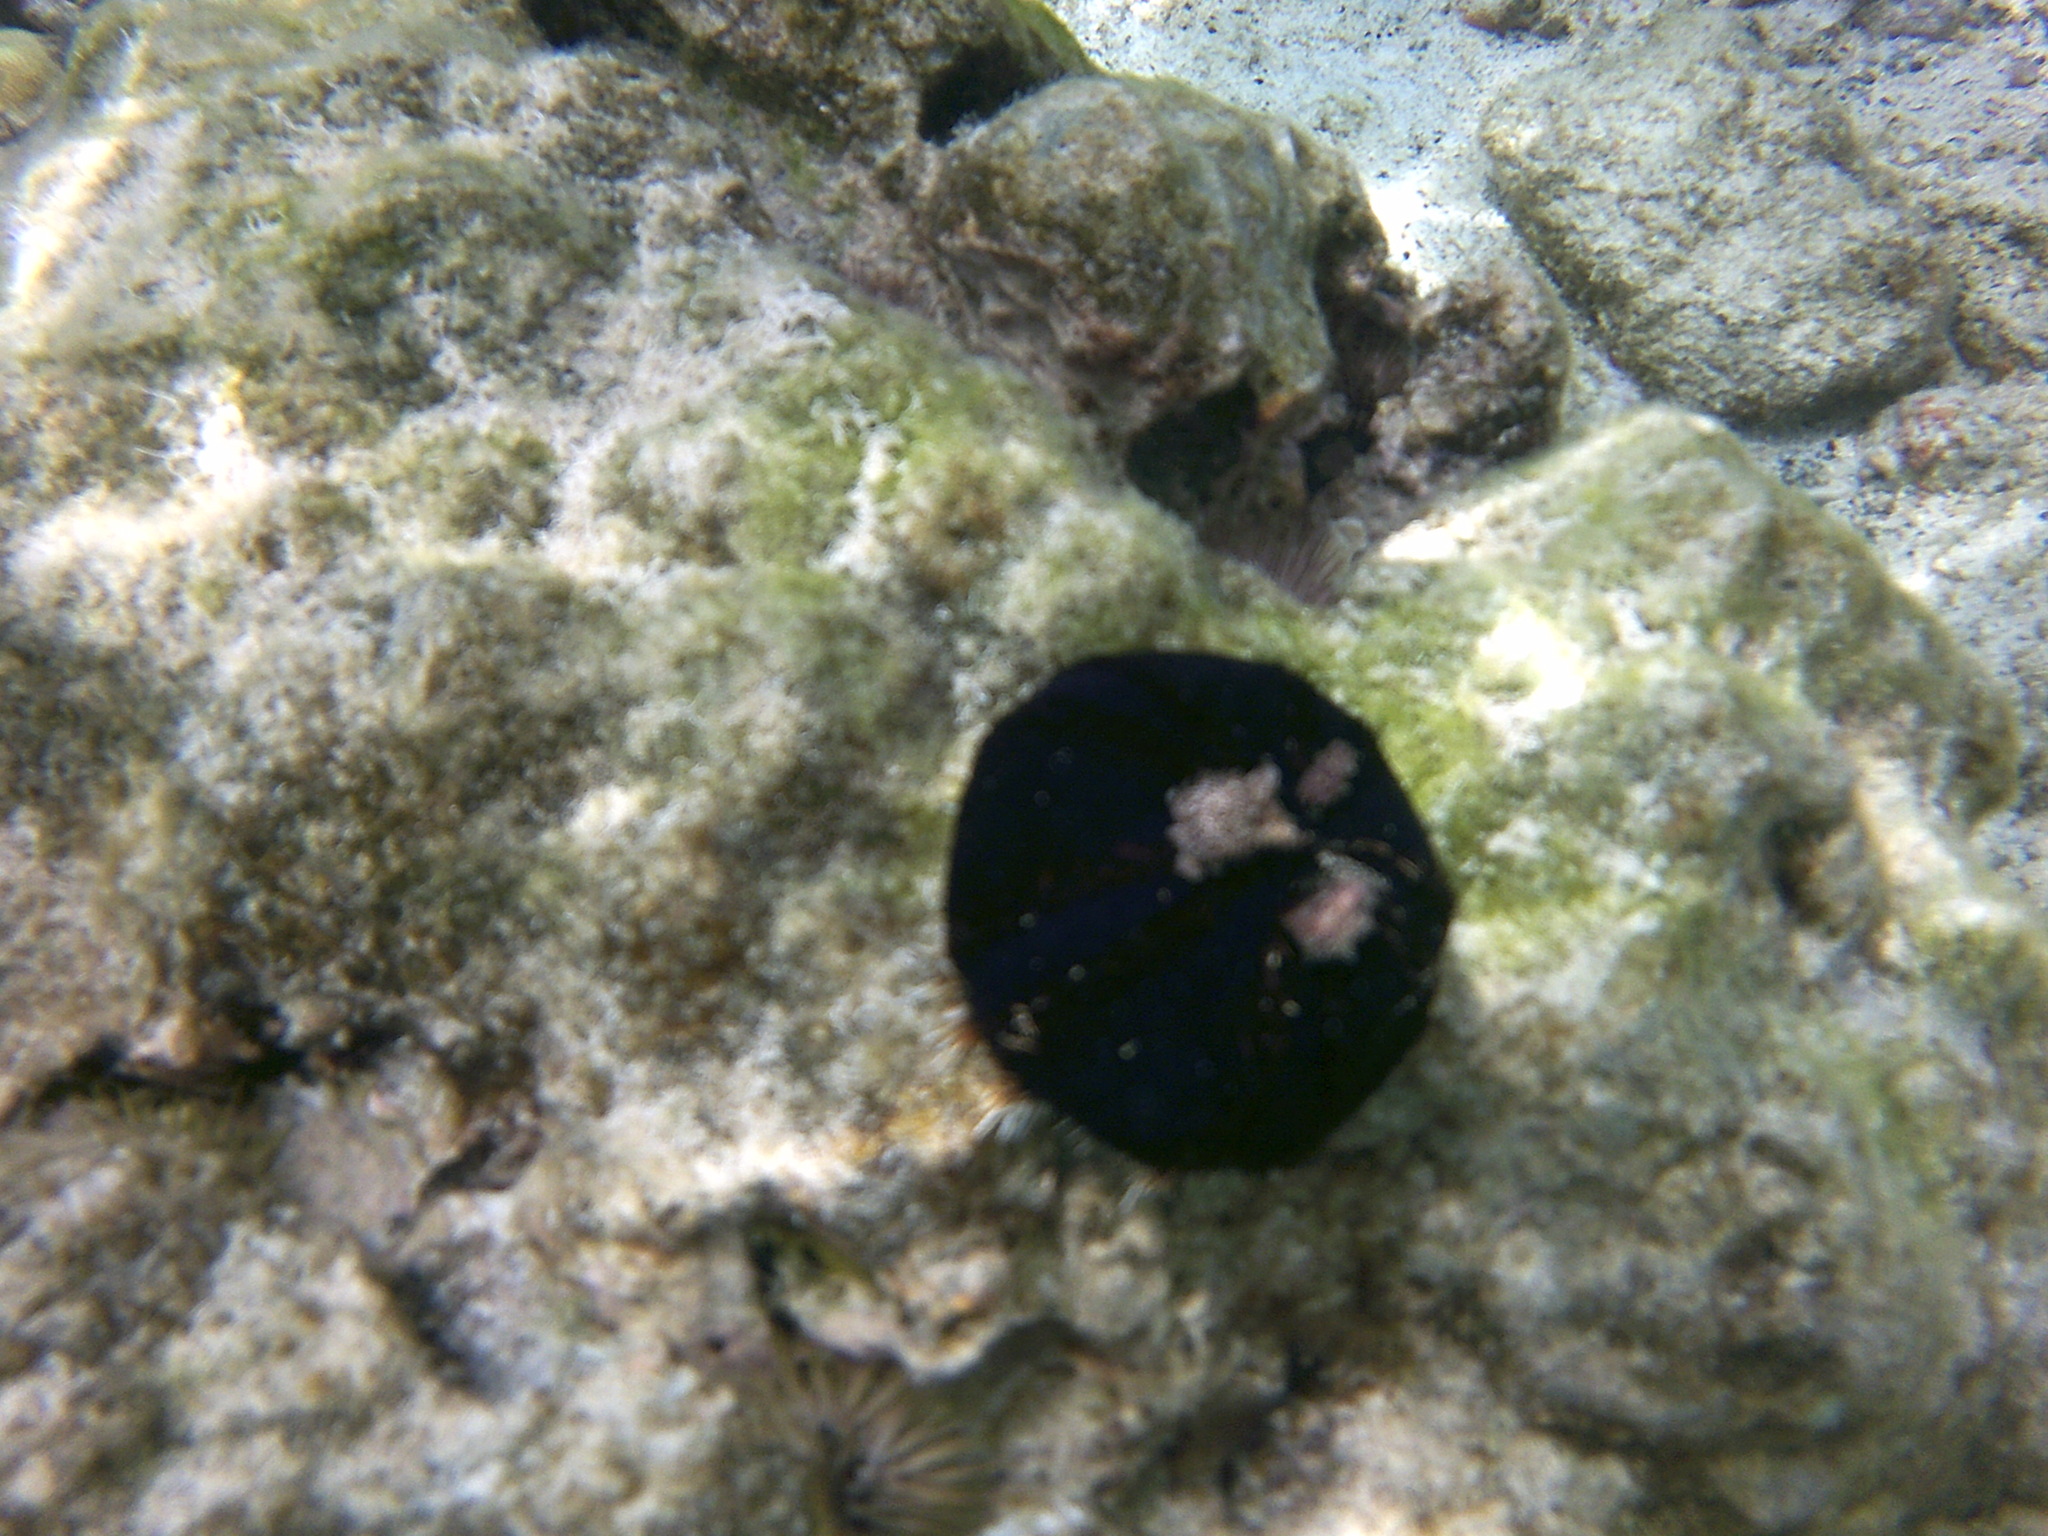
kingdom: Animalia
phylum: Echinodermata
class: Echinoidea
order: Camarodonta
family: Toxopneustidae
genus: Tripneustes
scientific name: Tripneustes gratilla
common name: Bischofsmützenseeigel
